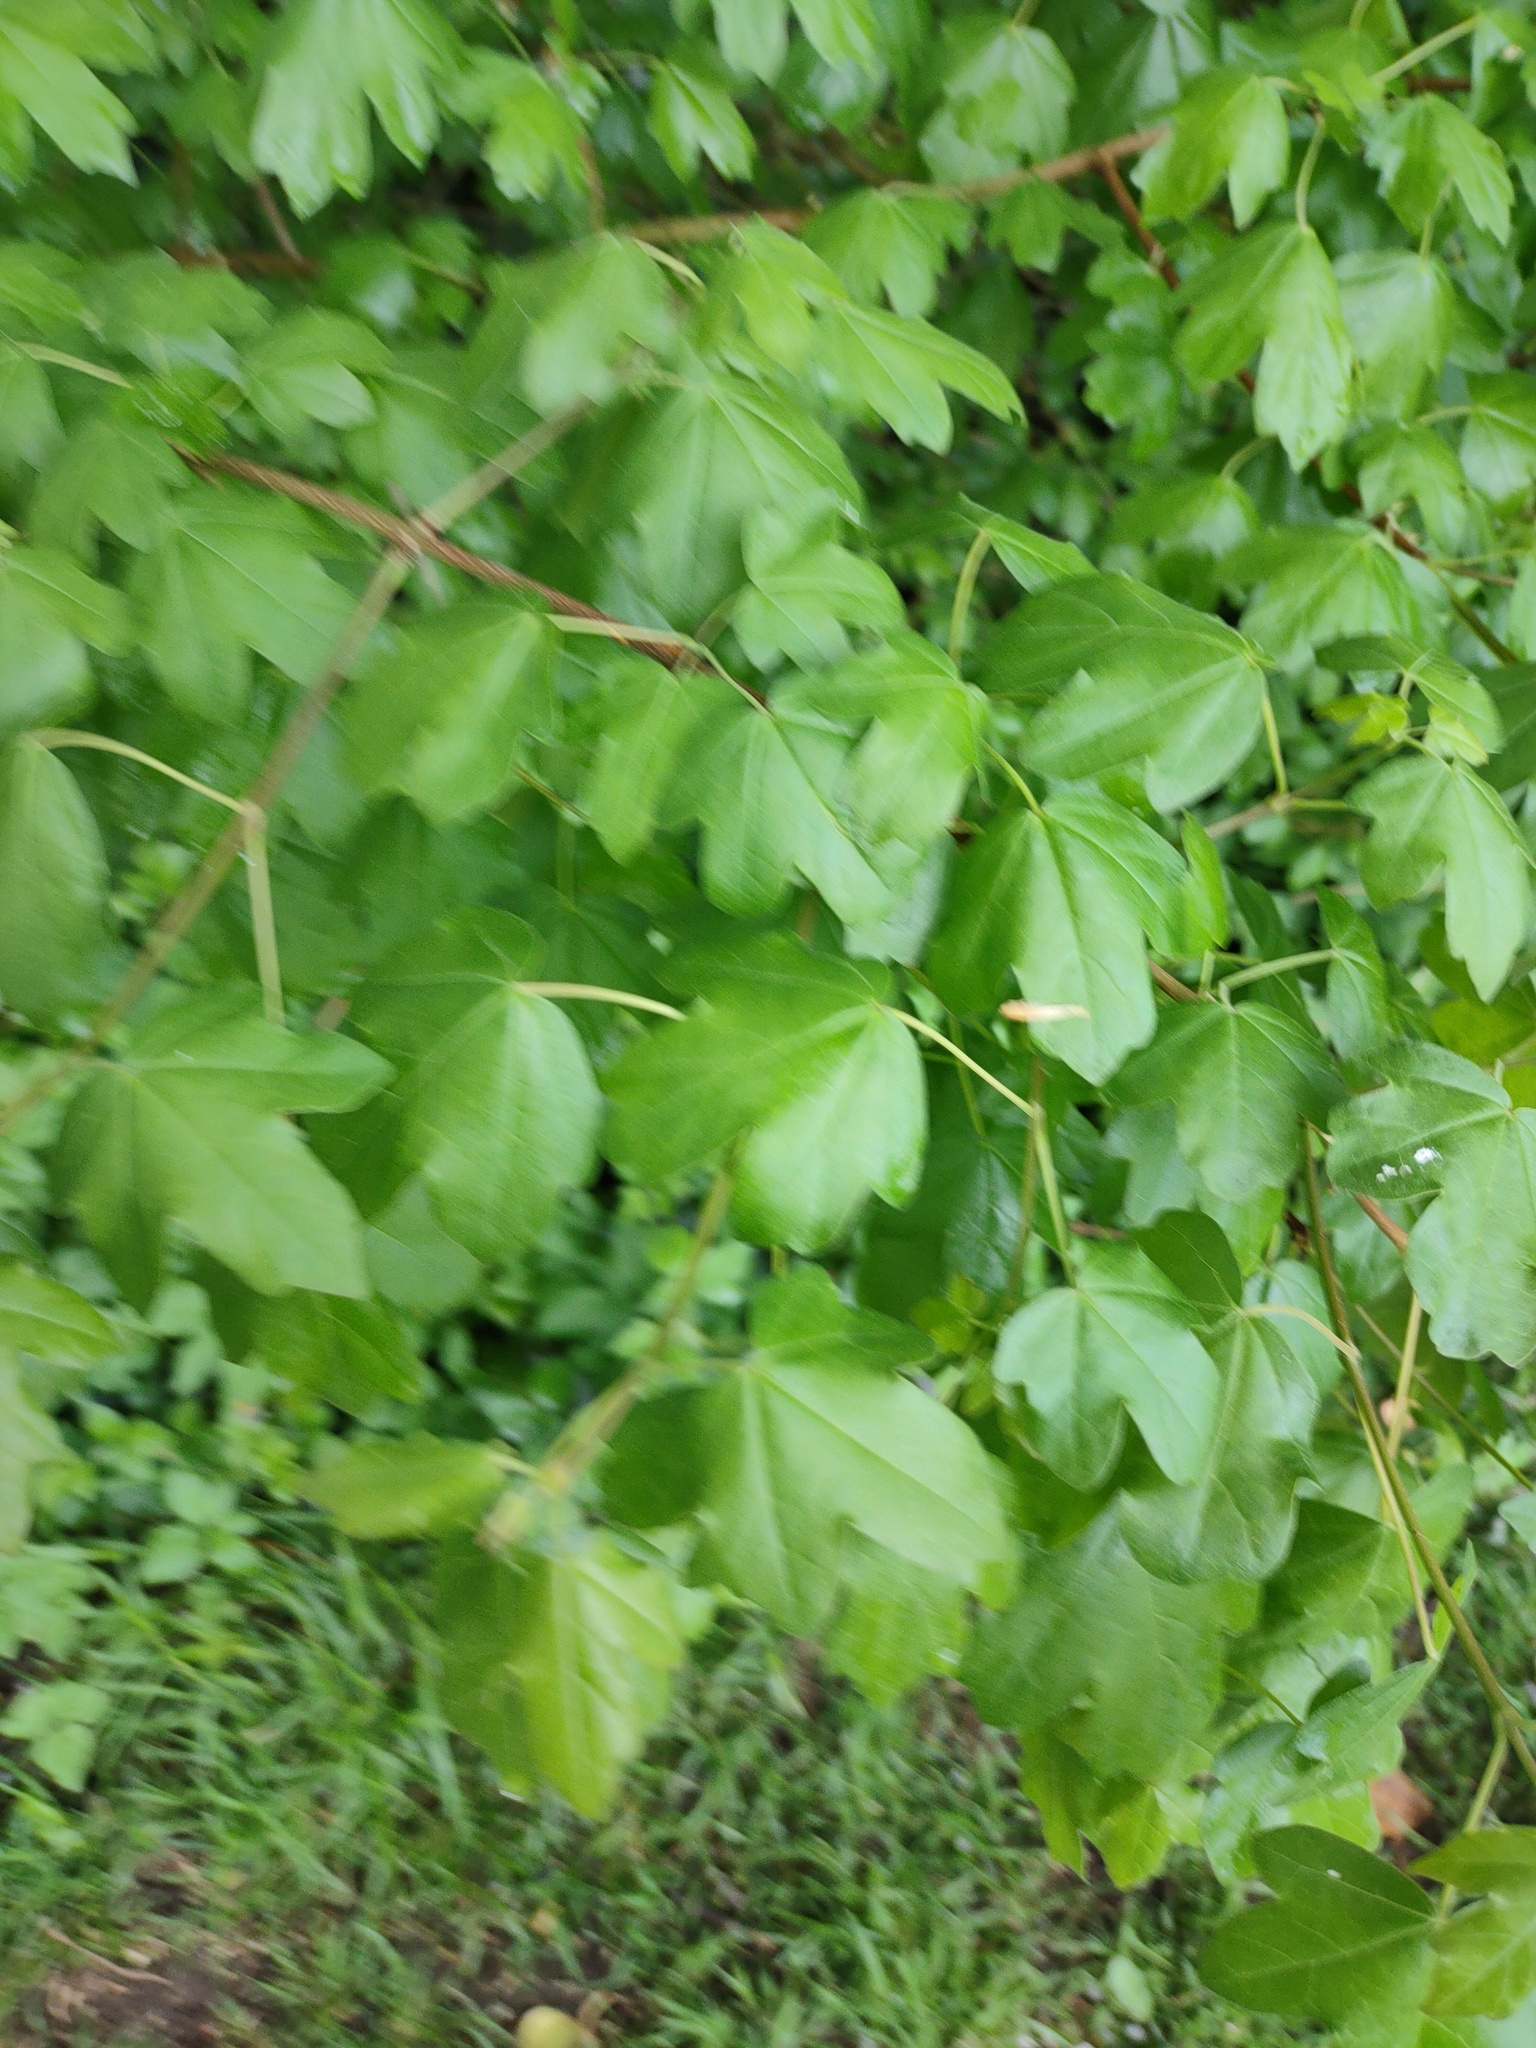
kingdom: Plantae
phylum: Tracheophyta
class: Magnoliopsida
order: Sapindales
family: Sapindaceae
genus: Acer
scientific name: Acer campestre
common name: Field maple
